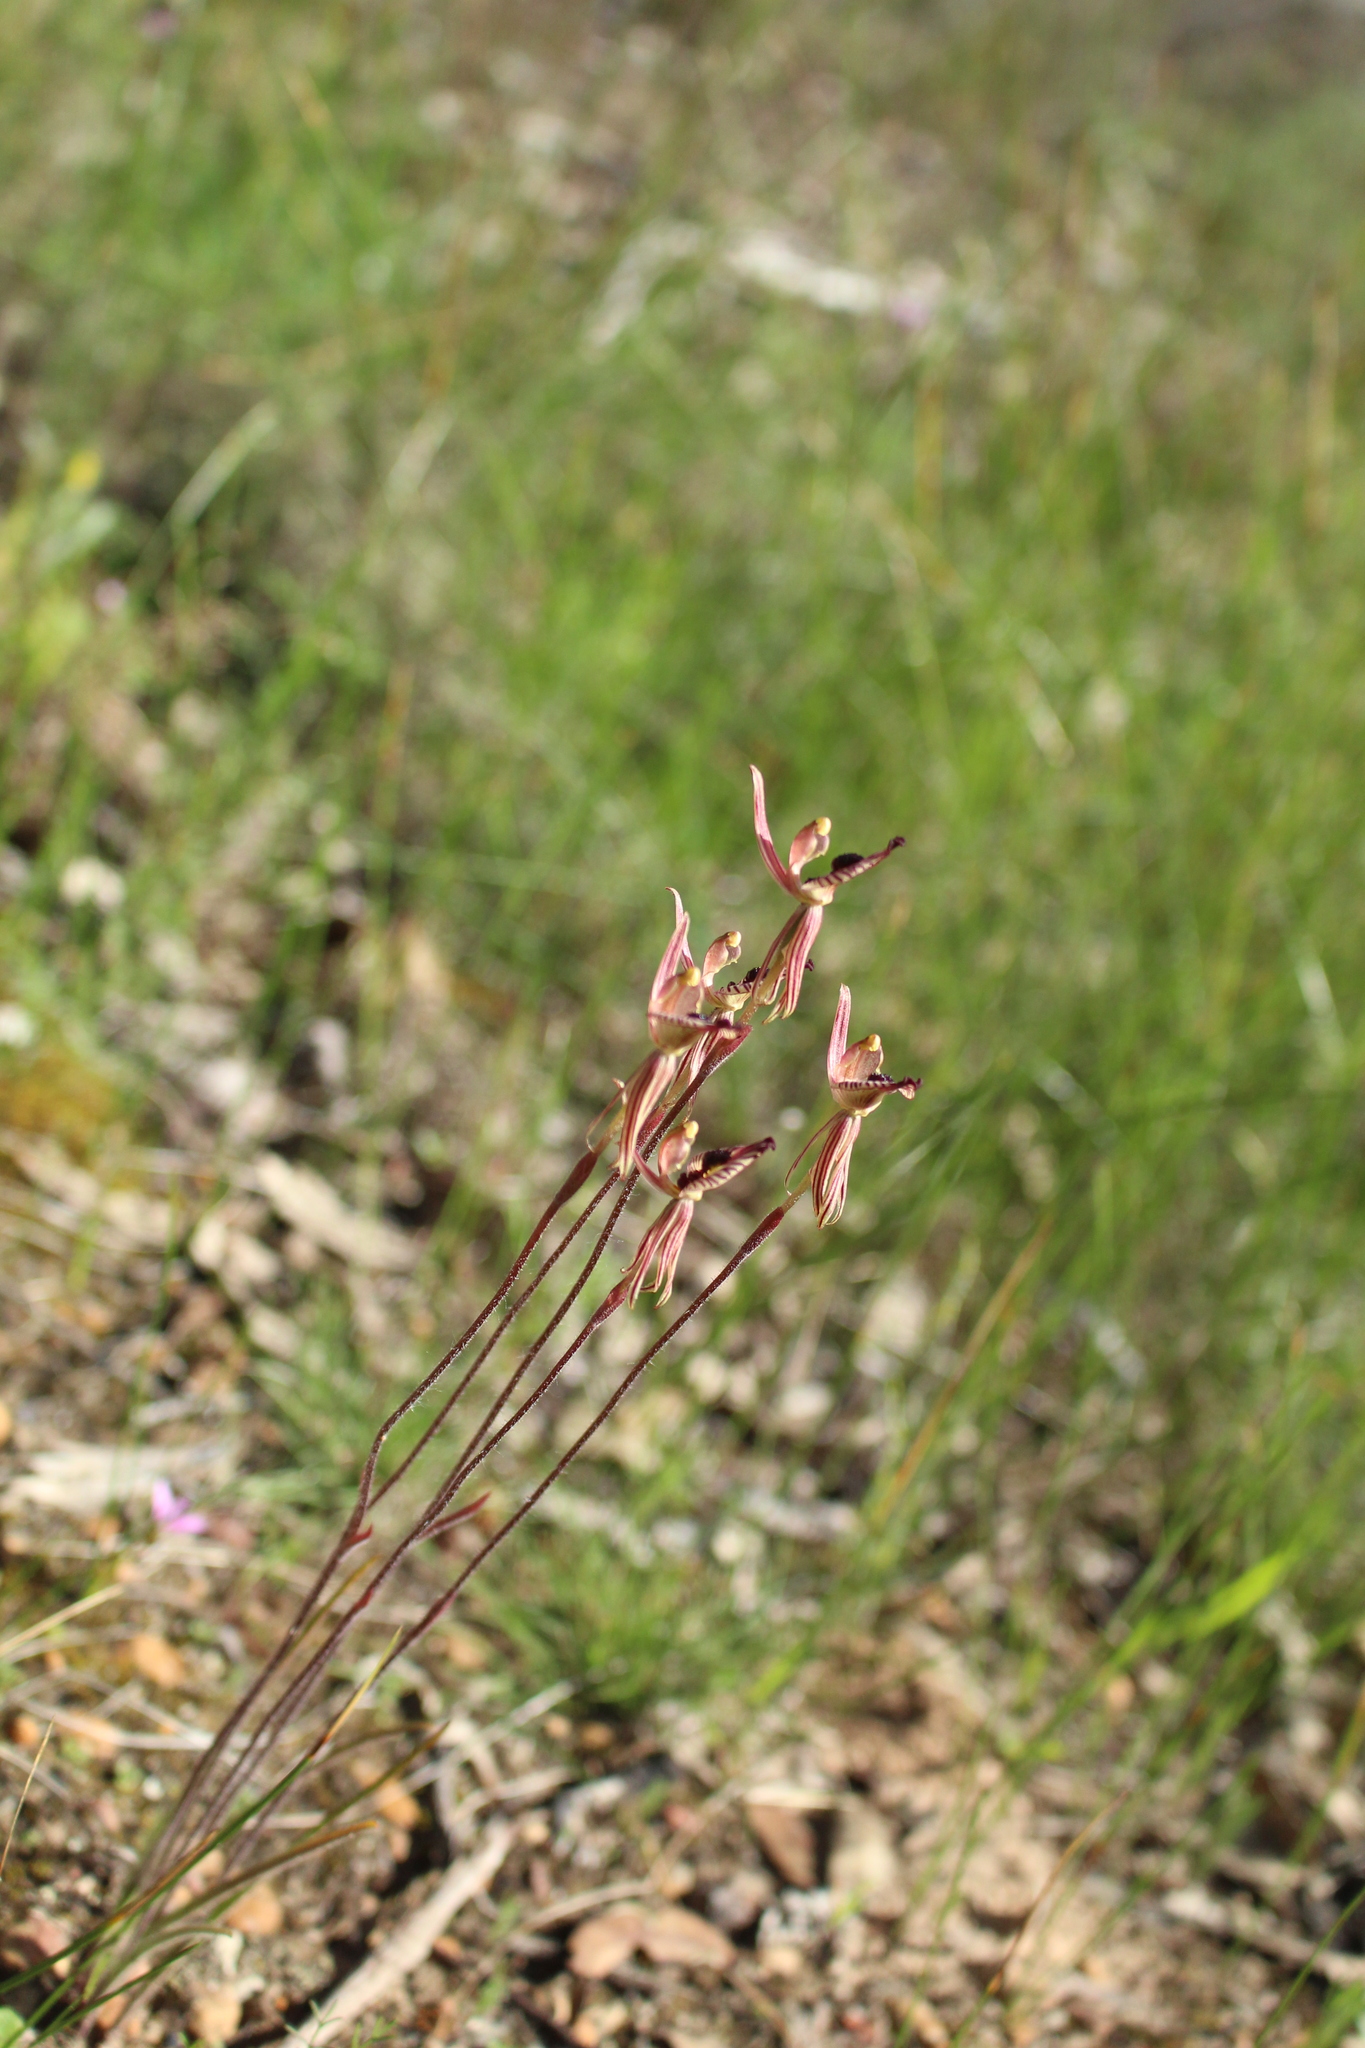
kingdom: Plantae
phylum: Tracheophyta
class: Liliopsida
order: Asparagales
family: Orchidaceae
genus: Caladenia
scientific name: Caladenia cairnsiana
